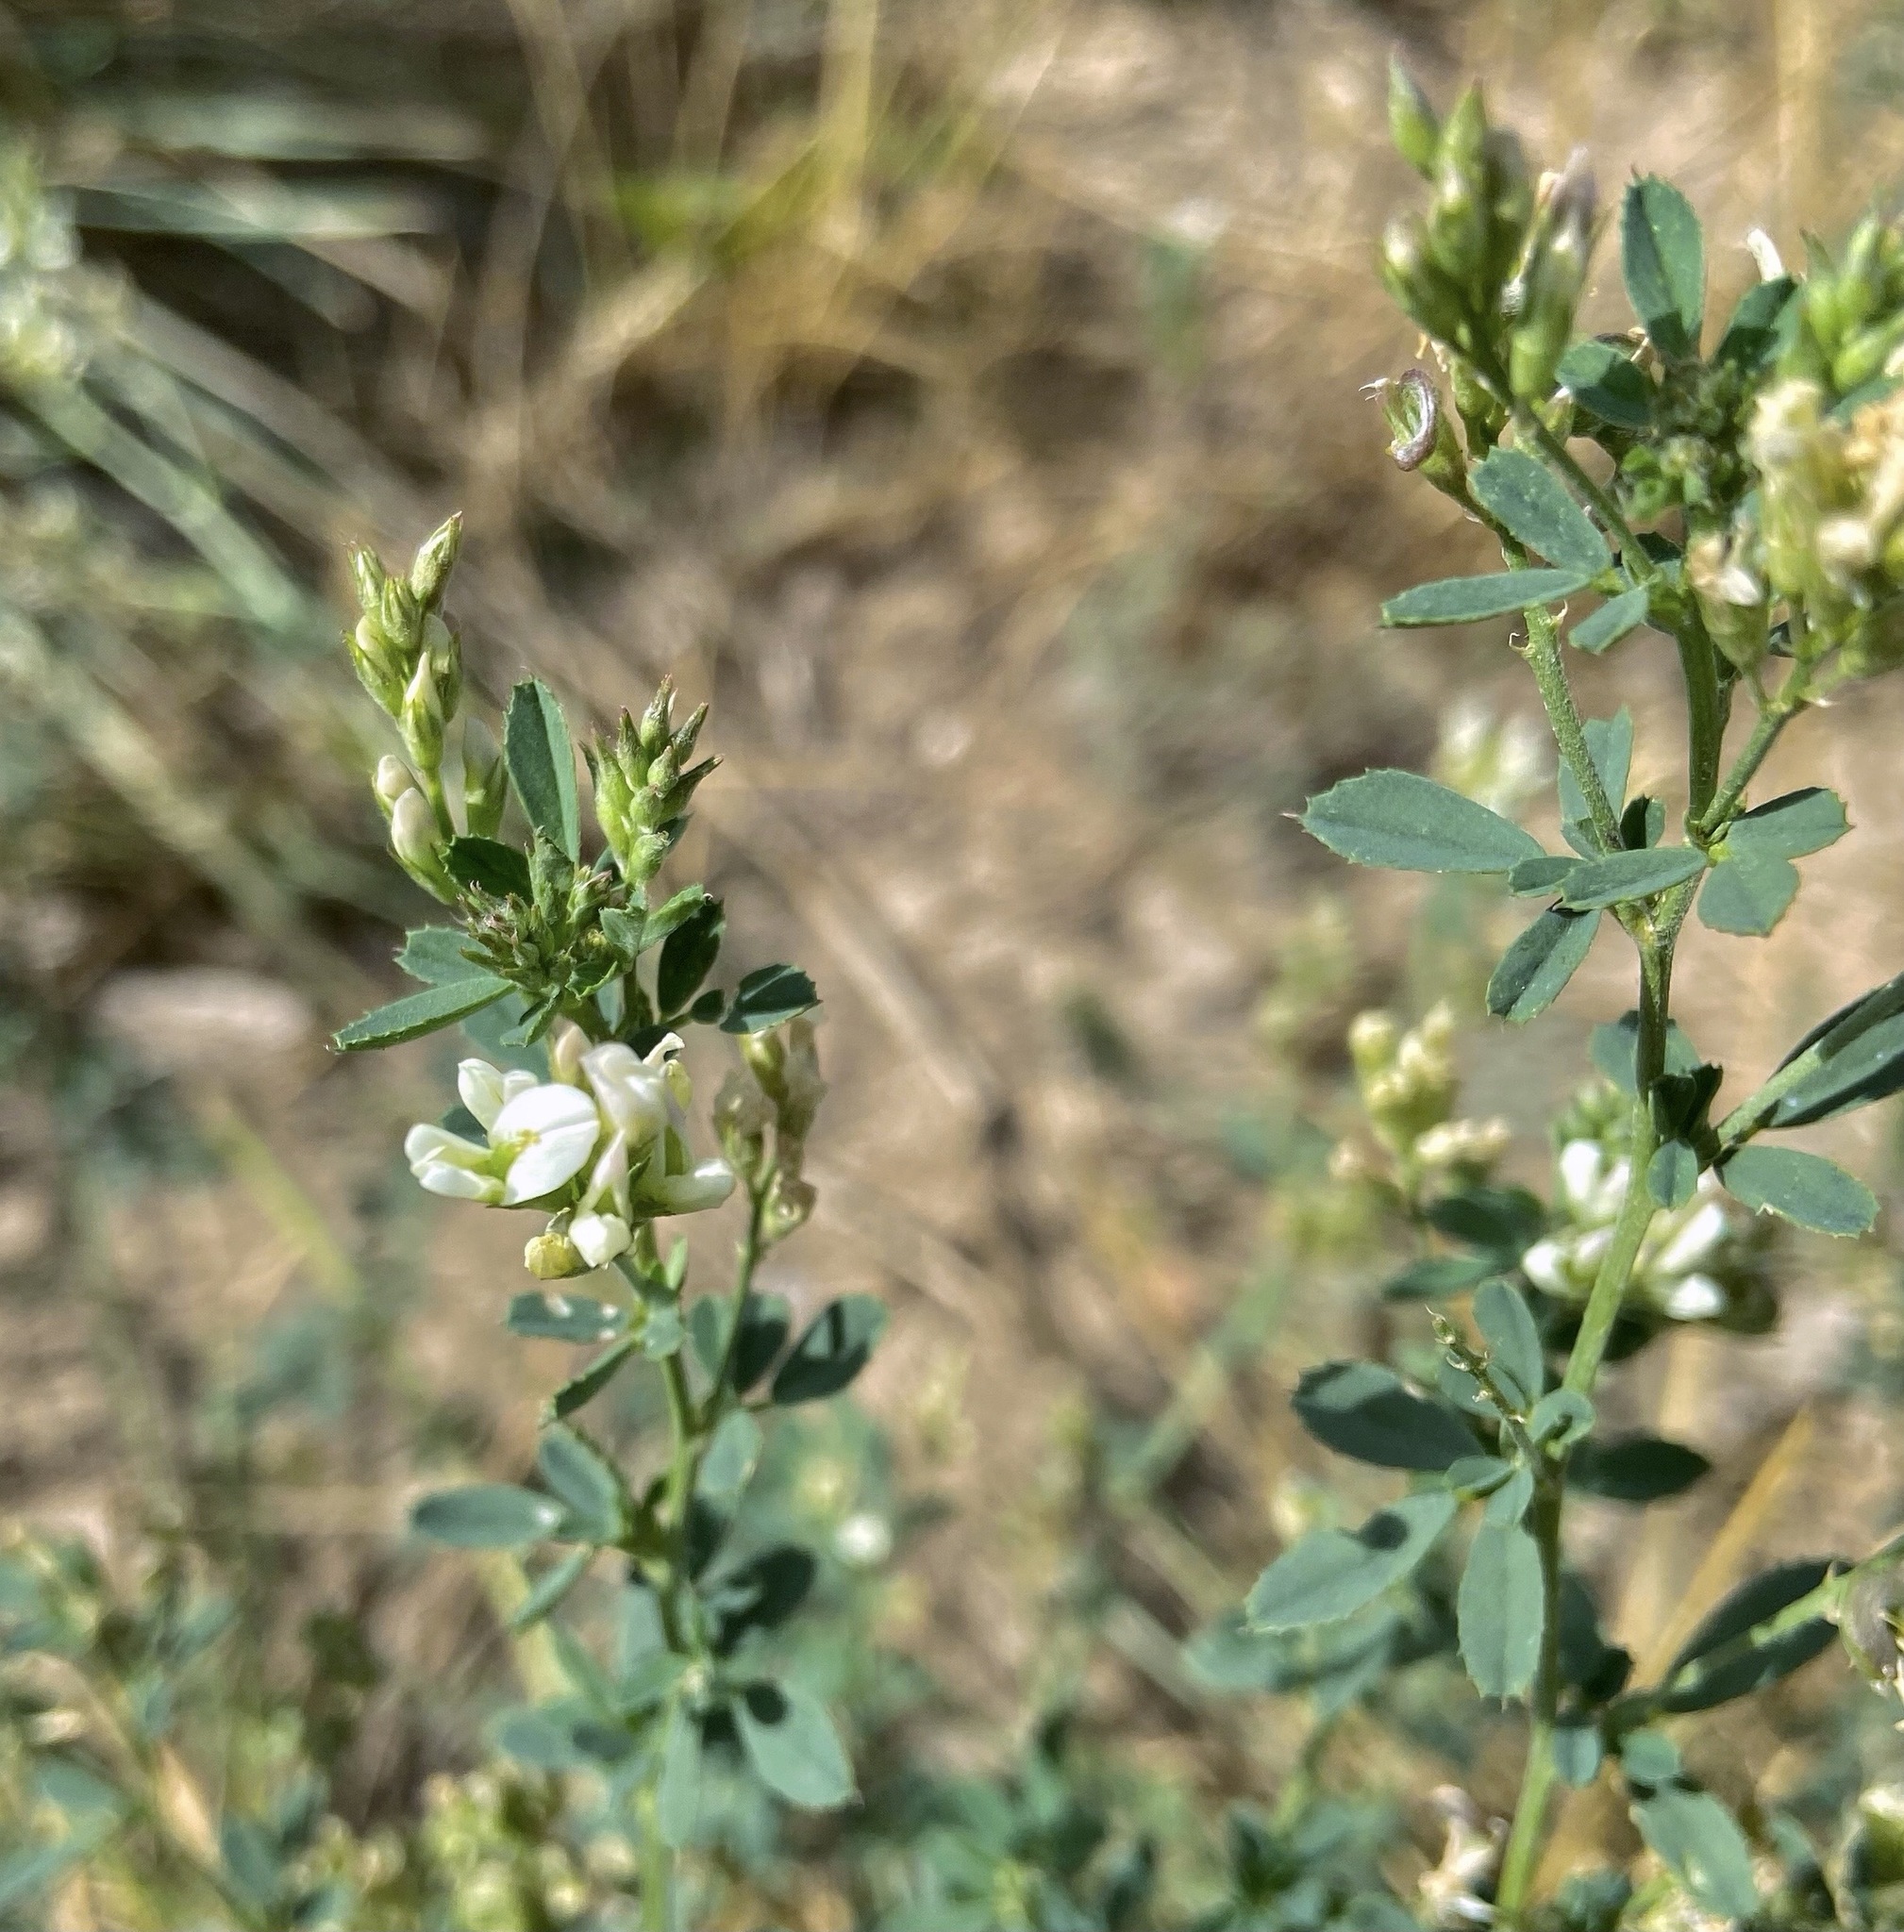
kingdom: Plantae
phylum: Tracheophyta
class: Magnoliopsida
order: Fabales
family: Fabaceae
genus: Melilotus
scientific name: Melilotus albus
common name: White melilot
